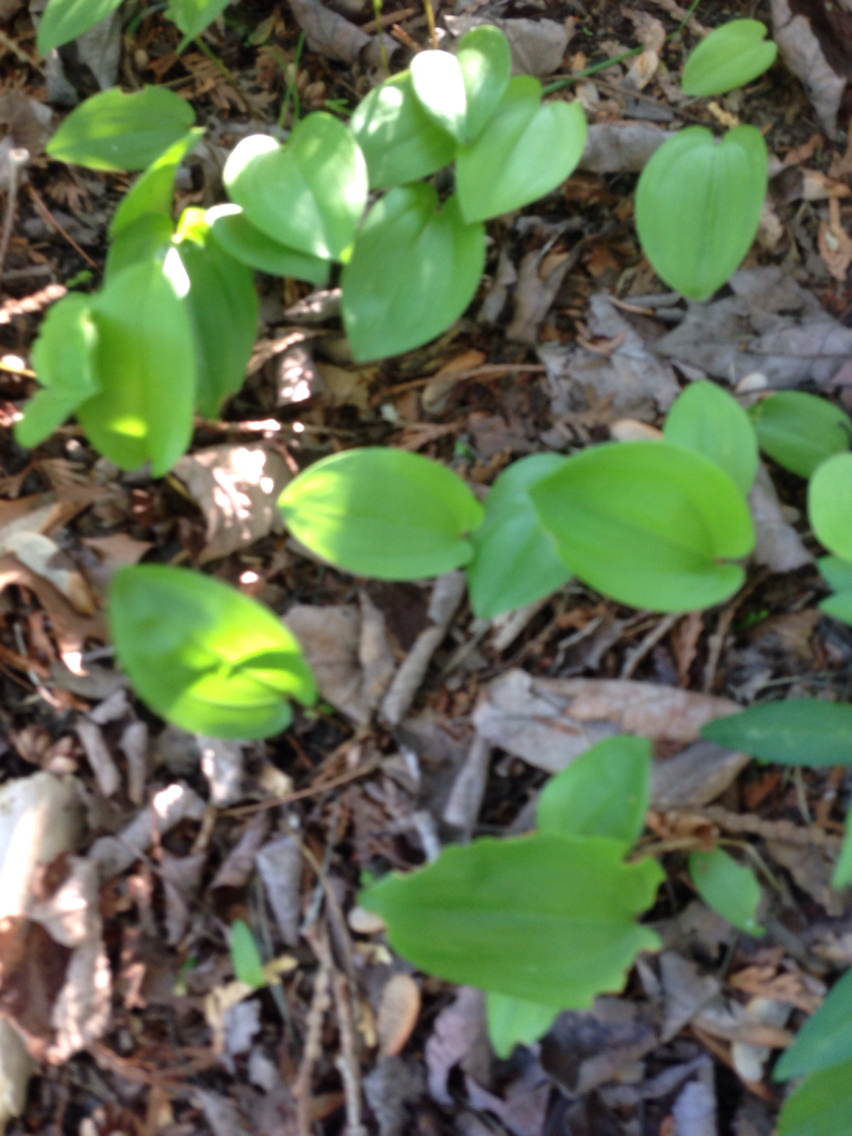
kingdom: Plantae
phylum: Tracheophyta
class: Liliopsida
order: Asparagales
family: Asparagaceae
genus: Maianthemum
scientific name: Maianthemum canadense
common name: False lily-of-the-valley
